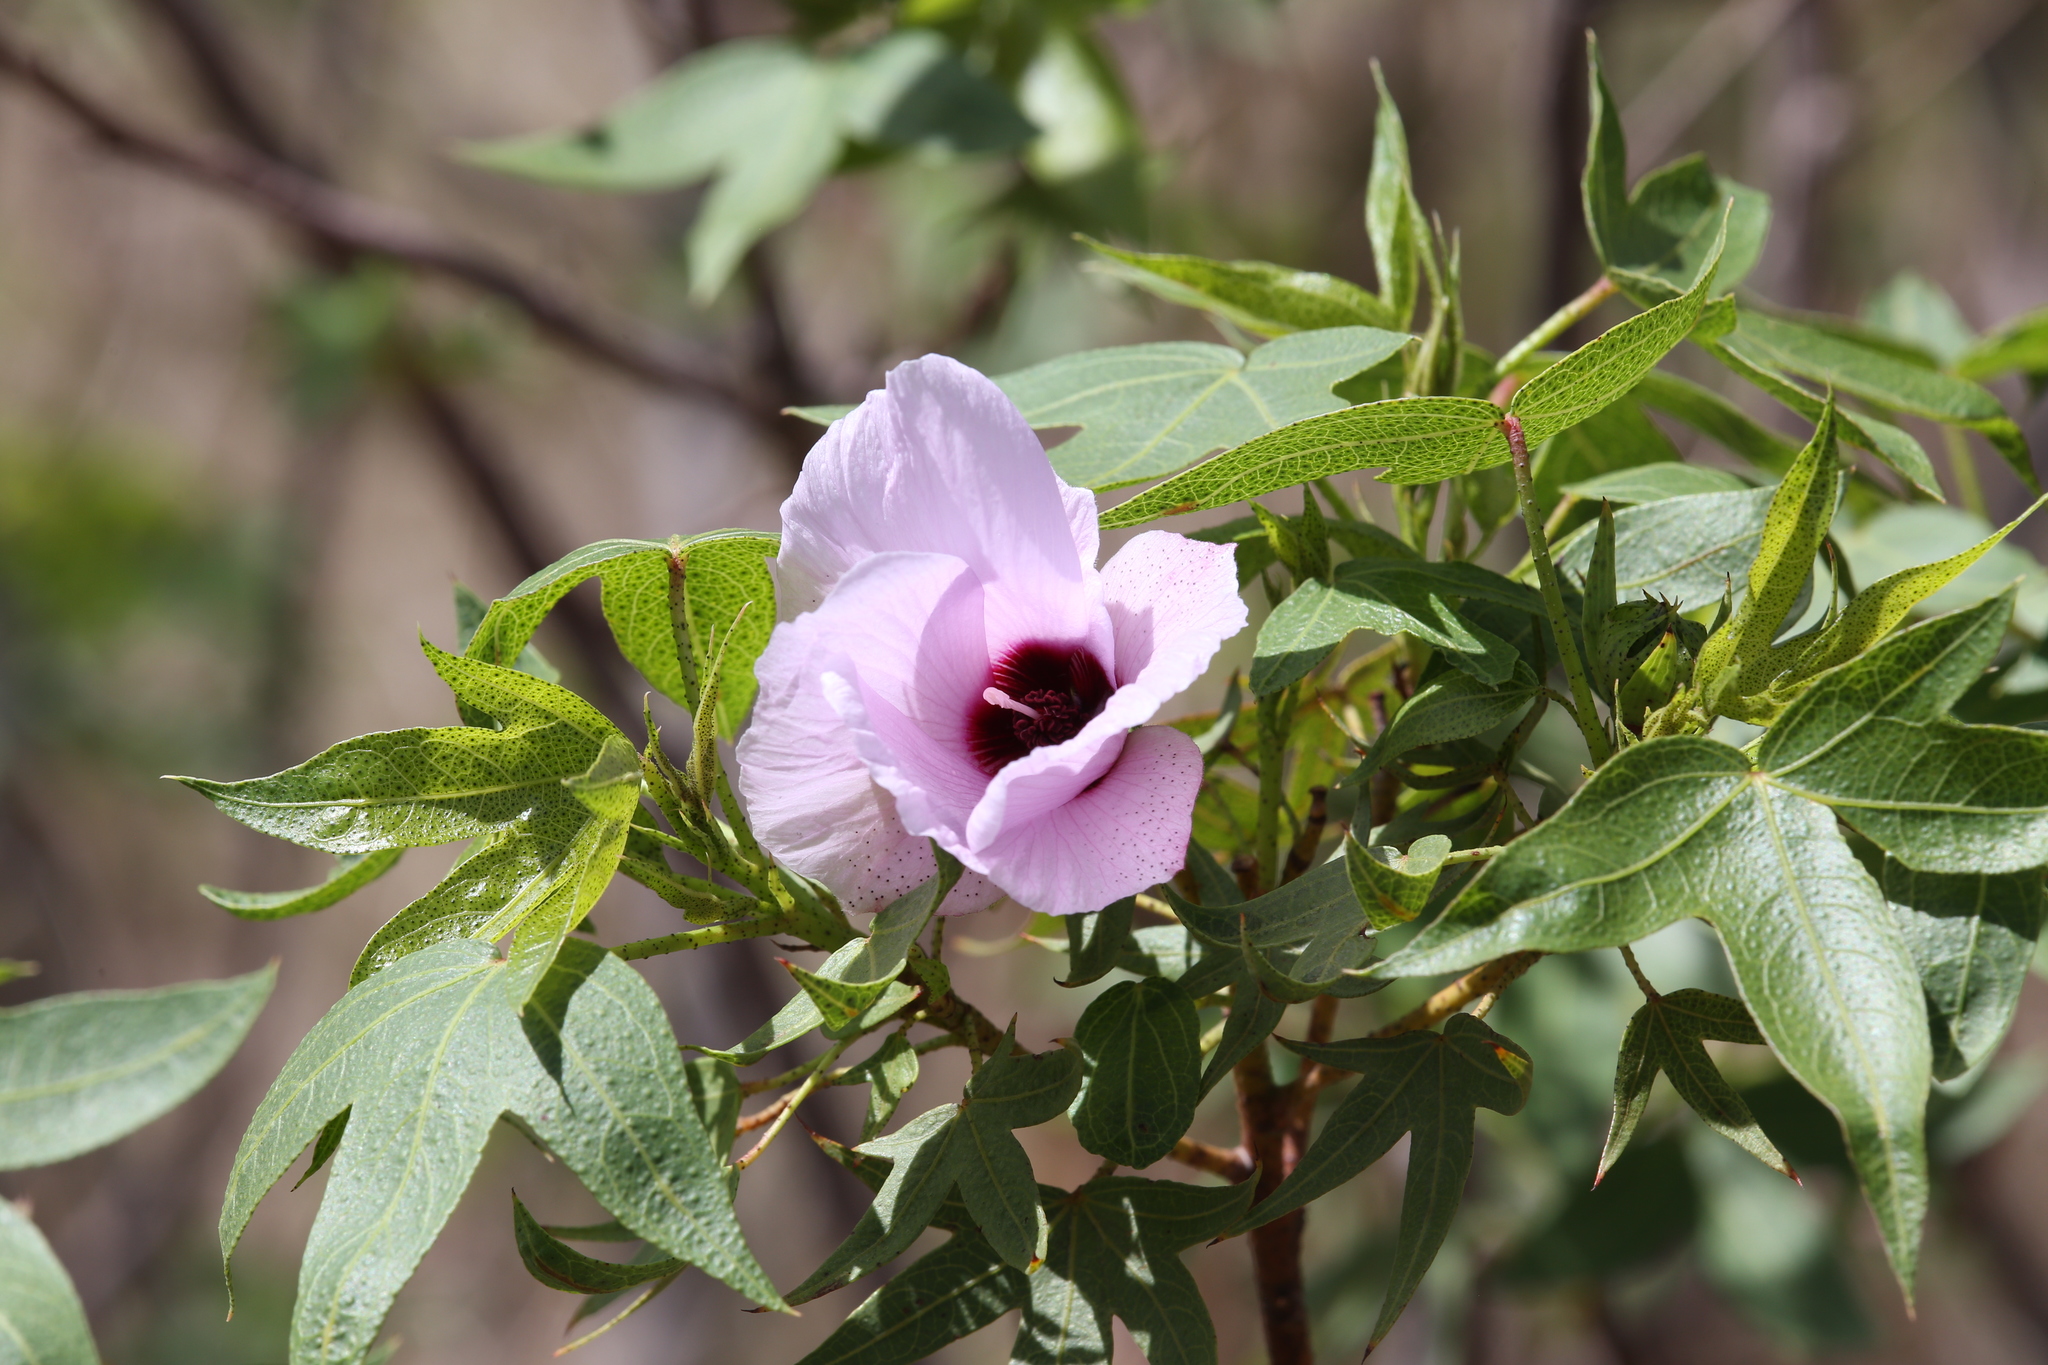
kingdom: Plantae
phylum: Tracheophyta
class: Magnoliopsida
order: Malvales
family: Malvaceae
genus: Gossypium
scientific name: Gossypium robinsonii
